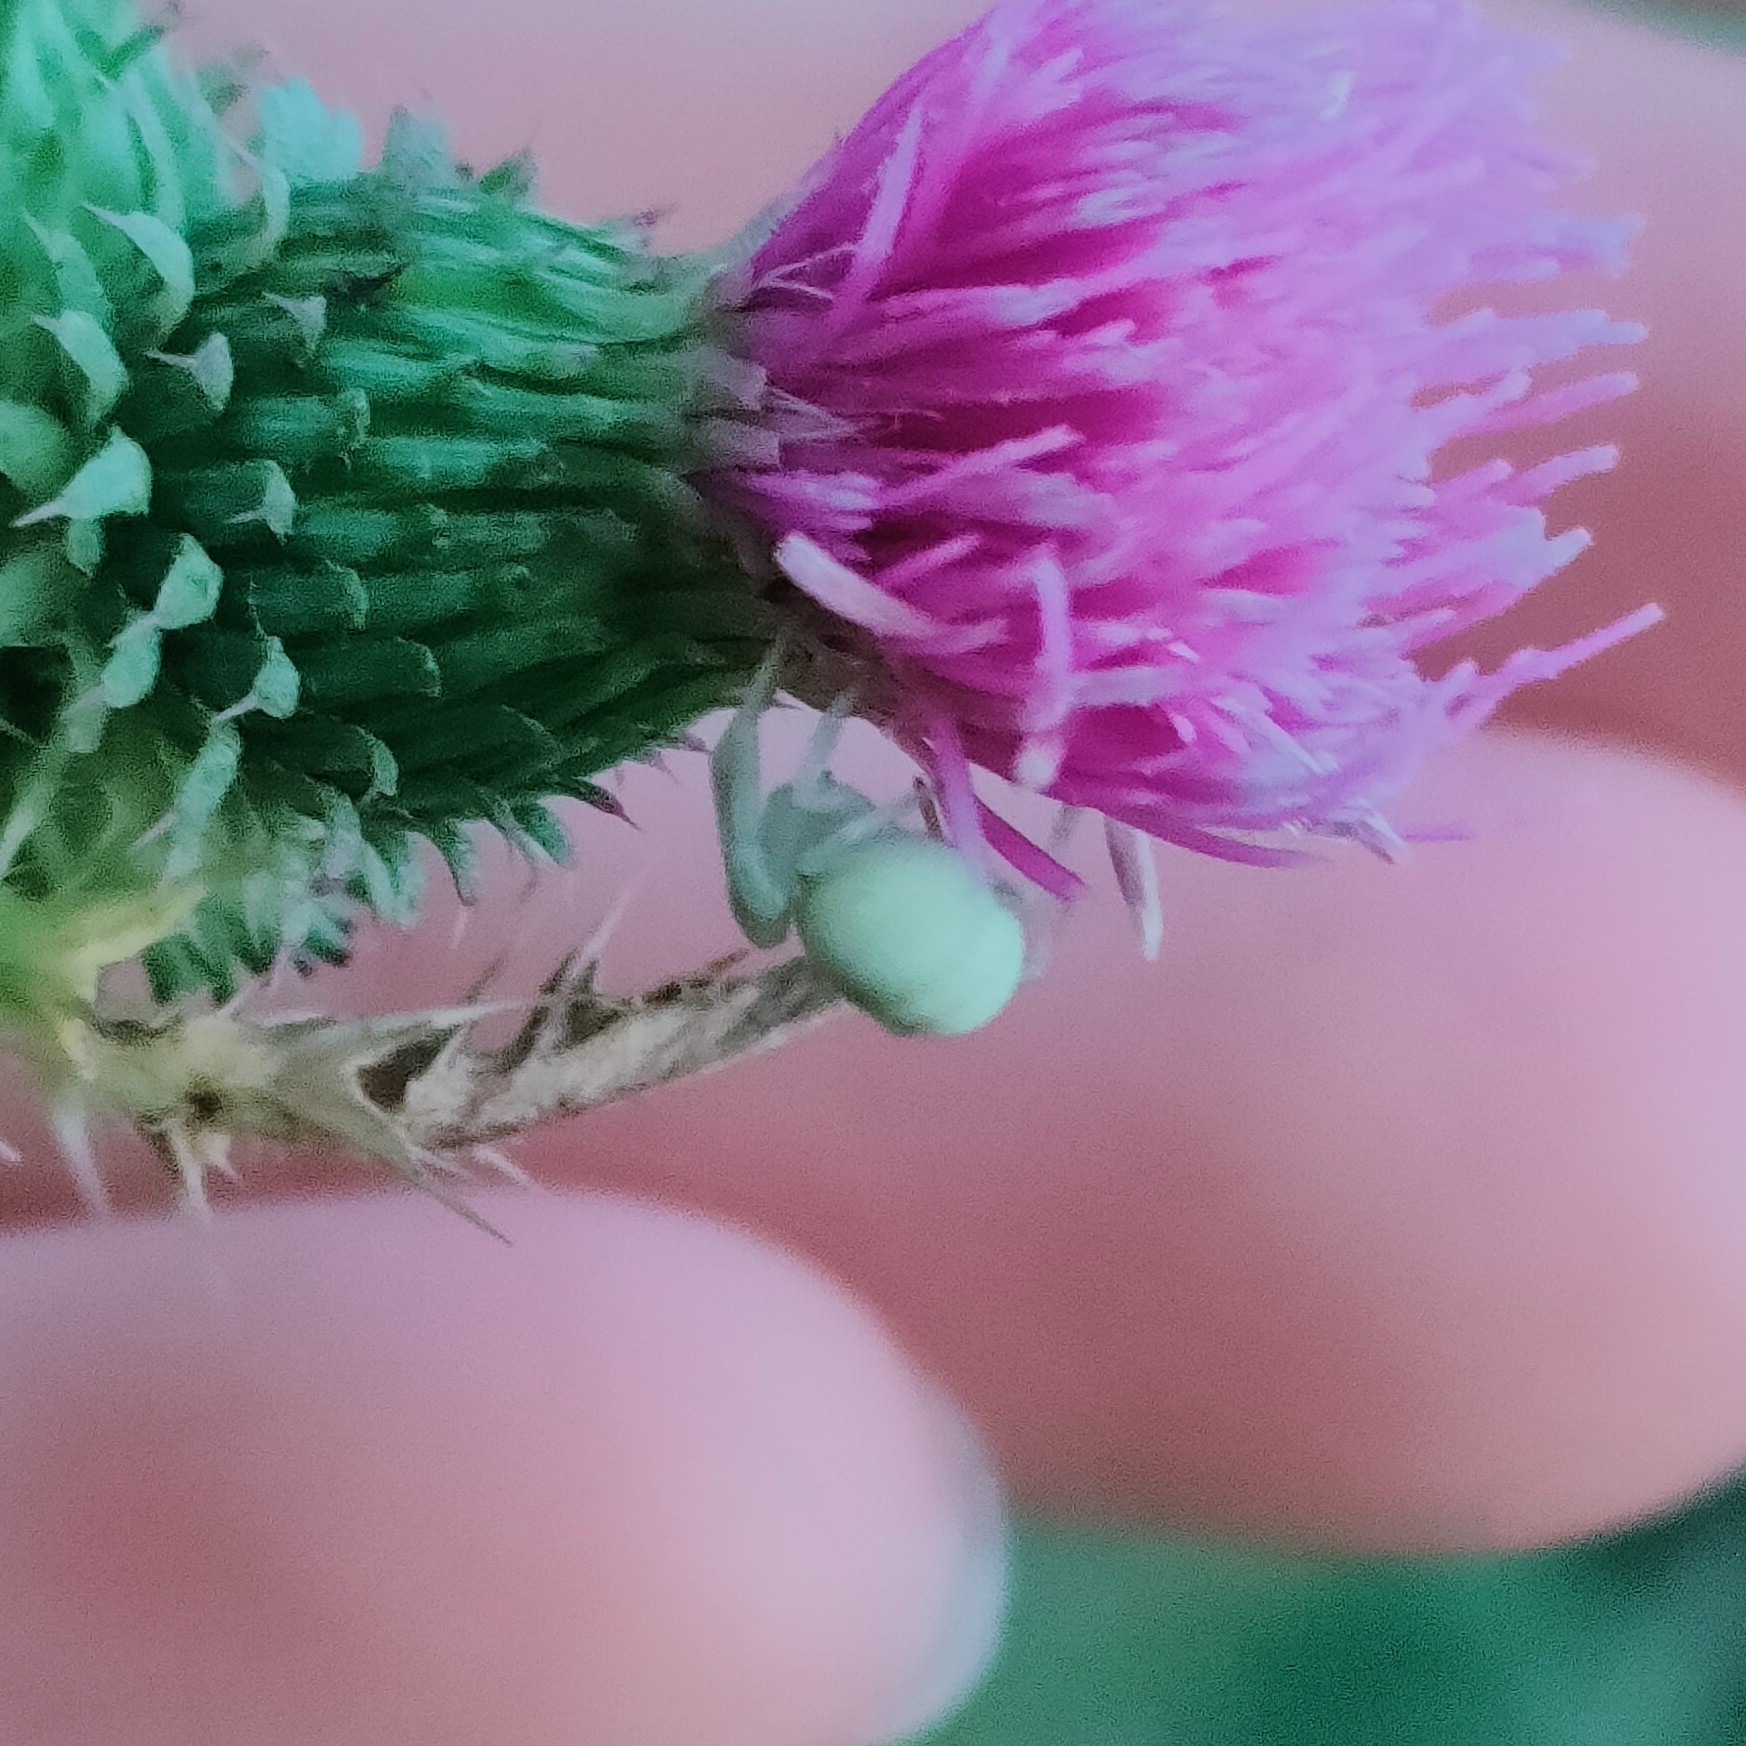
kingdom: Animalia
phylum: Arthropoda
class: Arachnida
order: Araneae
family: Thomisidae
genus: Misumena
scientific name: Misumena vatia
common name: Goldenrod crab spider
